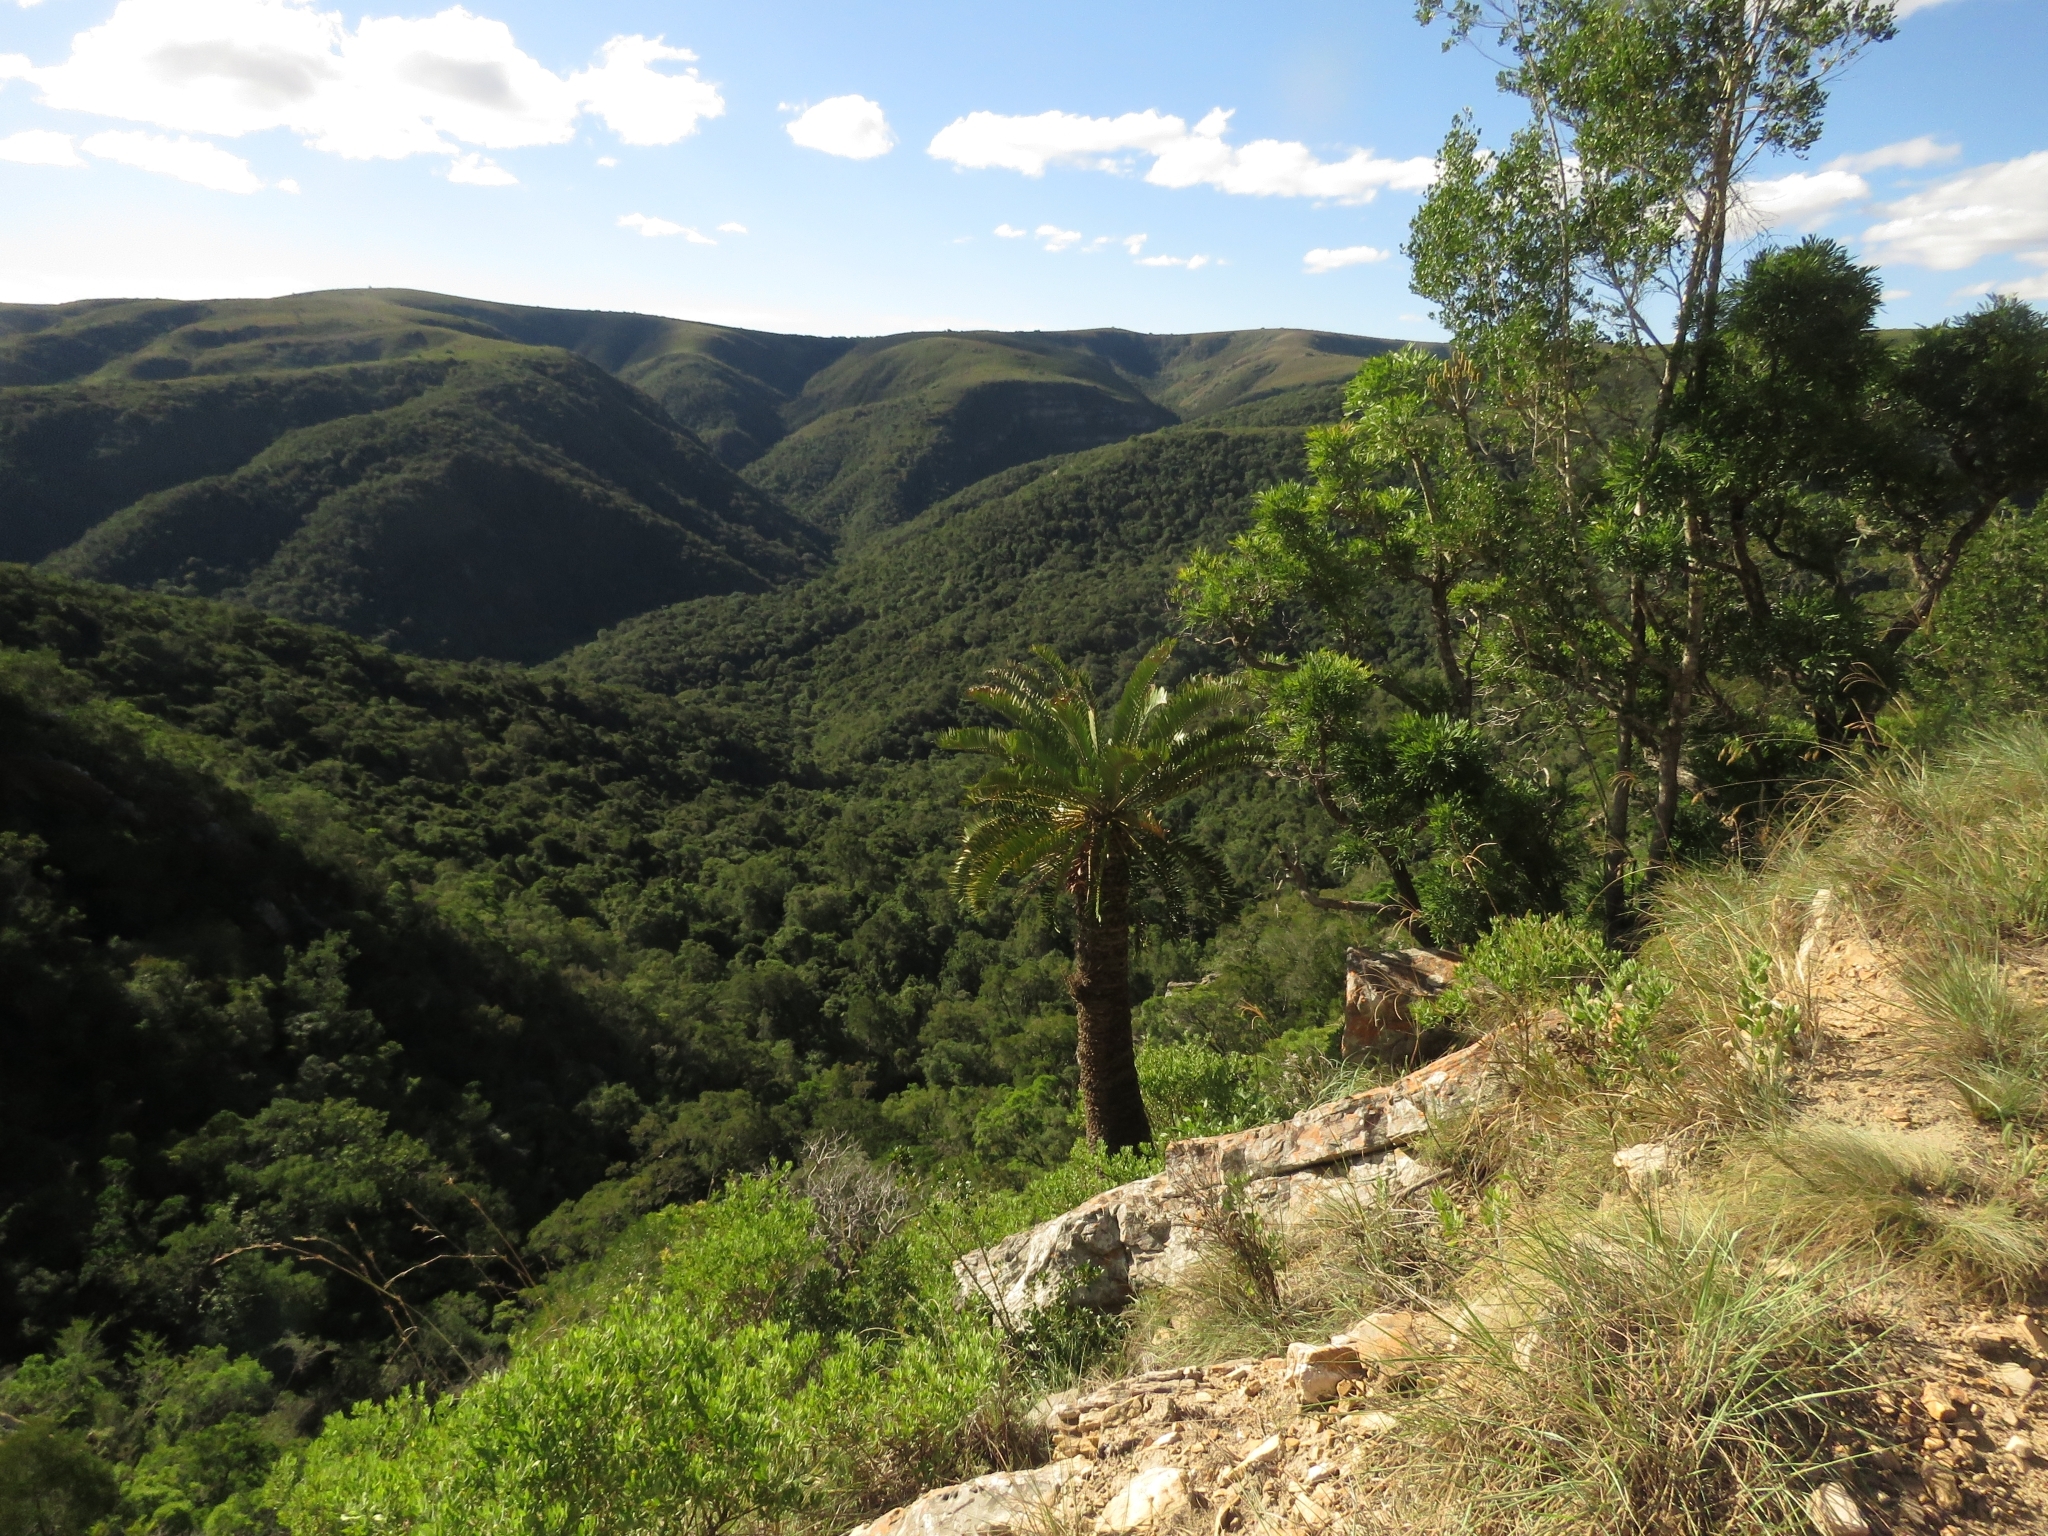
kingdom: Plantae
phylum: Tracheophyta
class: Cycadopsida
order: Cycadales
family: Zamiaceae
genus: Encephalartos
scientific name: Encephalartos longifolius
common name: Suurberg cycad
